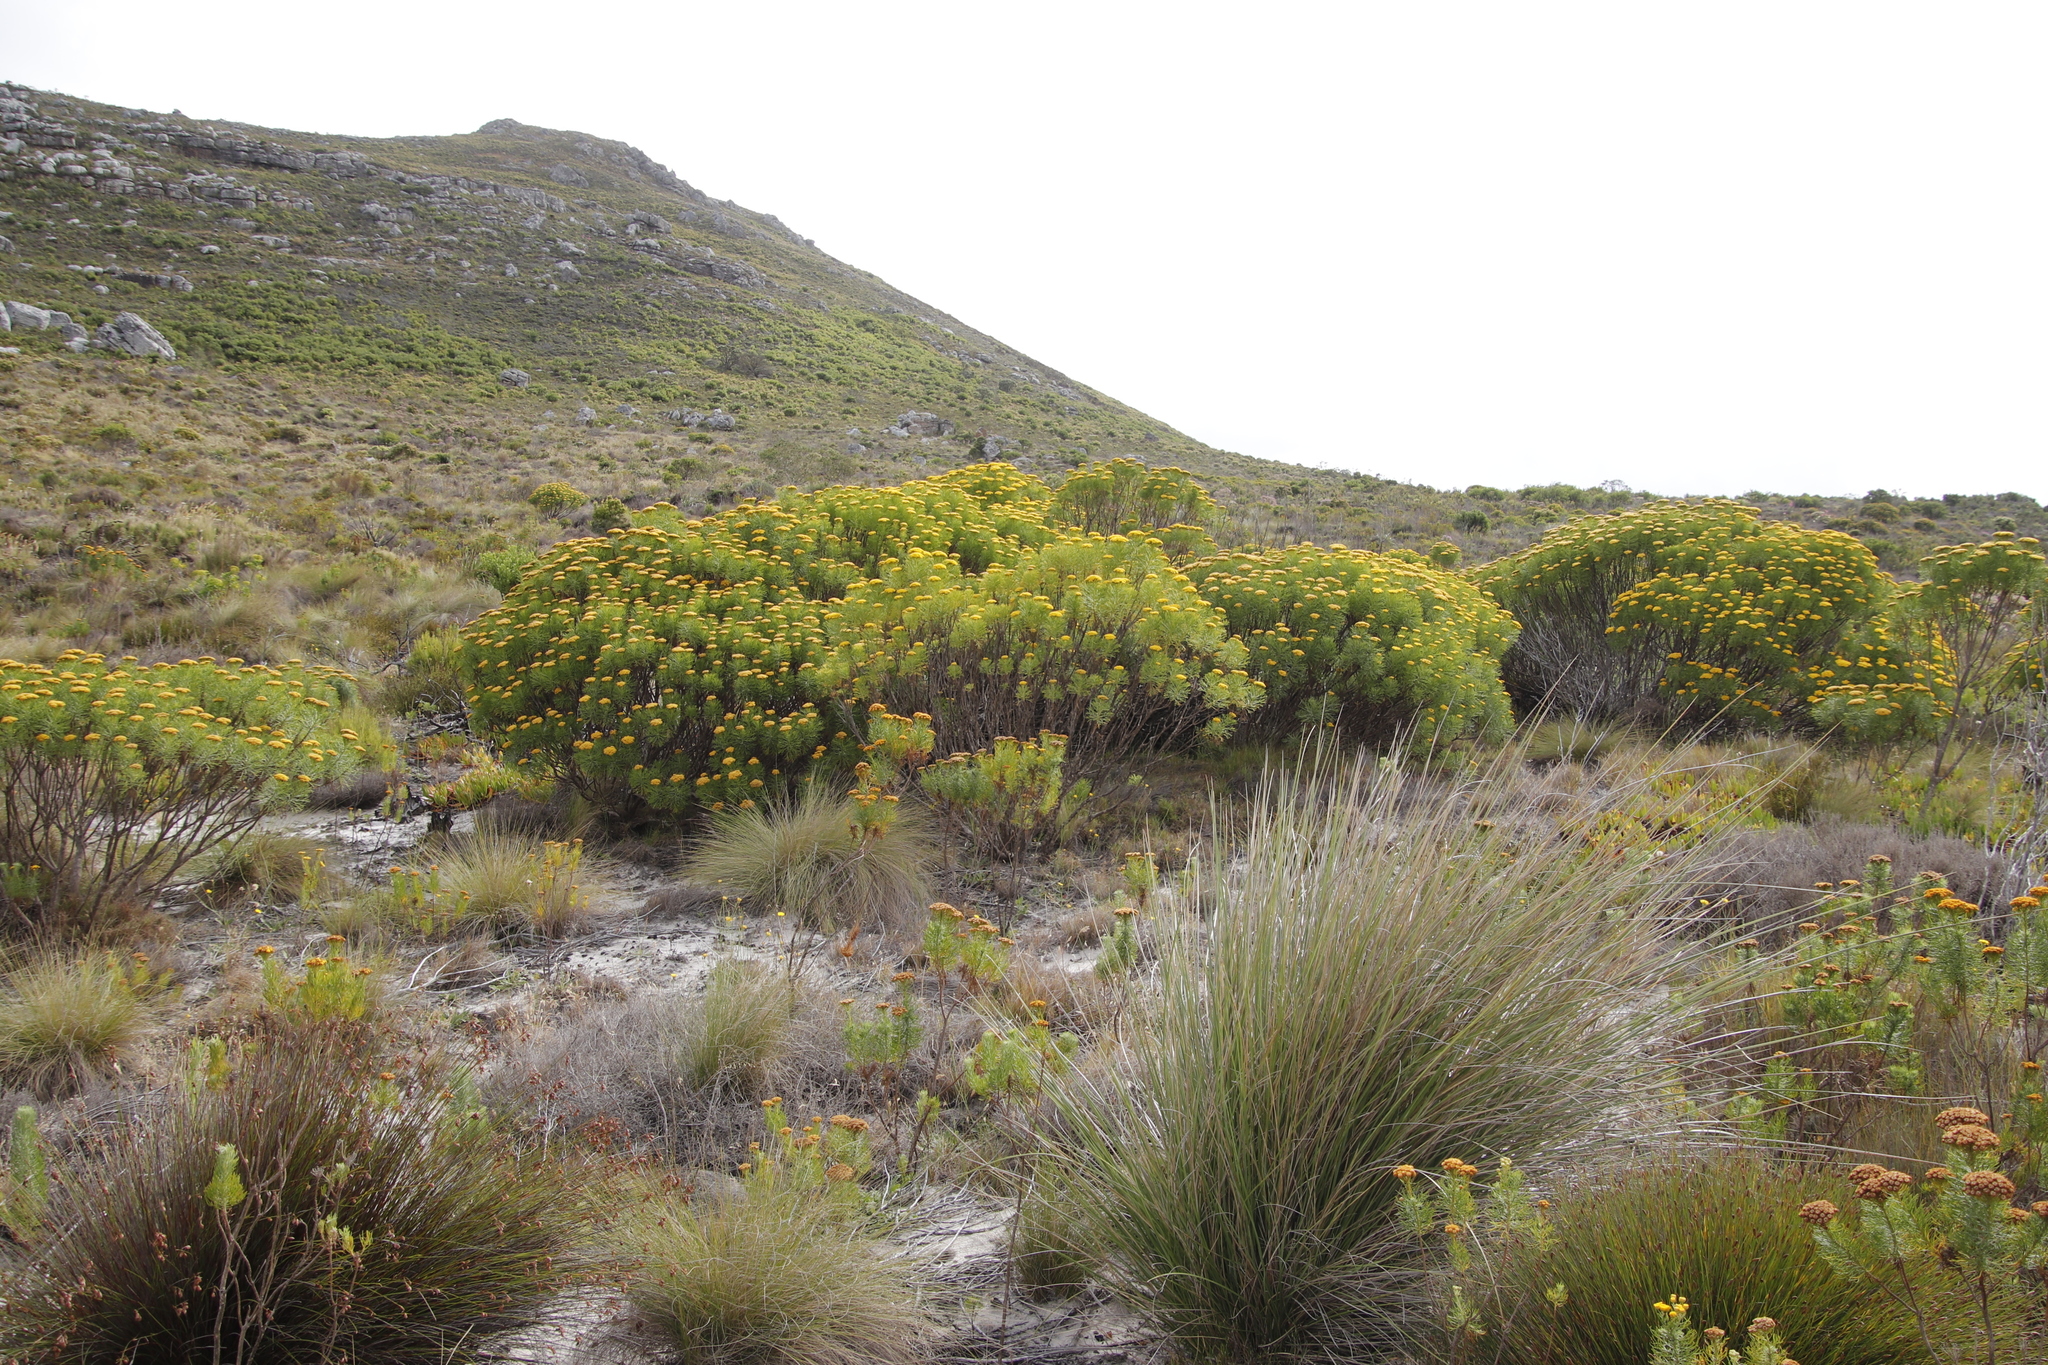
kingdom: Plantae
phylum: Tracheophyta
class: Magnoliopsida
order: Asterales
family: Asteraceae
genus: Hymenolepis
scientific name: Hymenolepis crithmifolia
